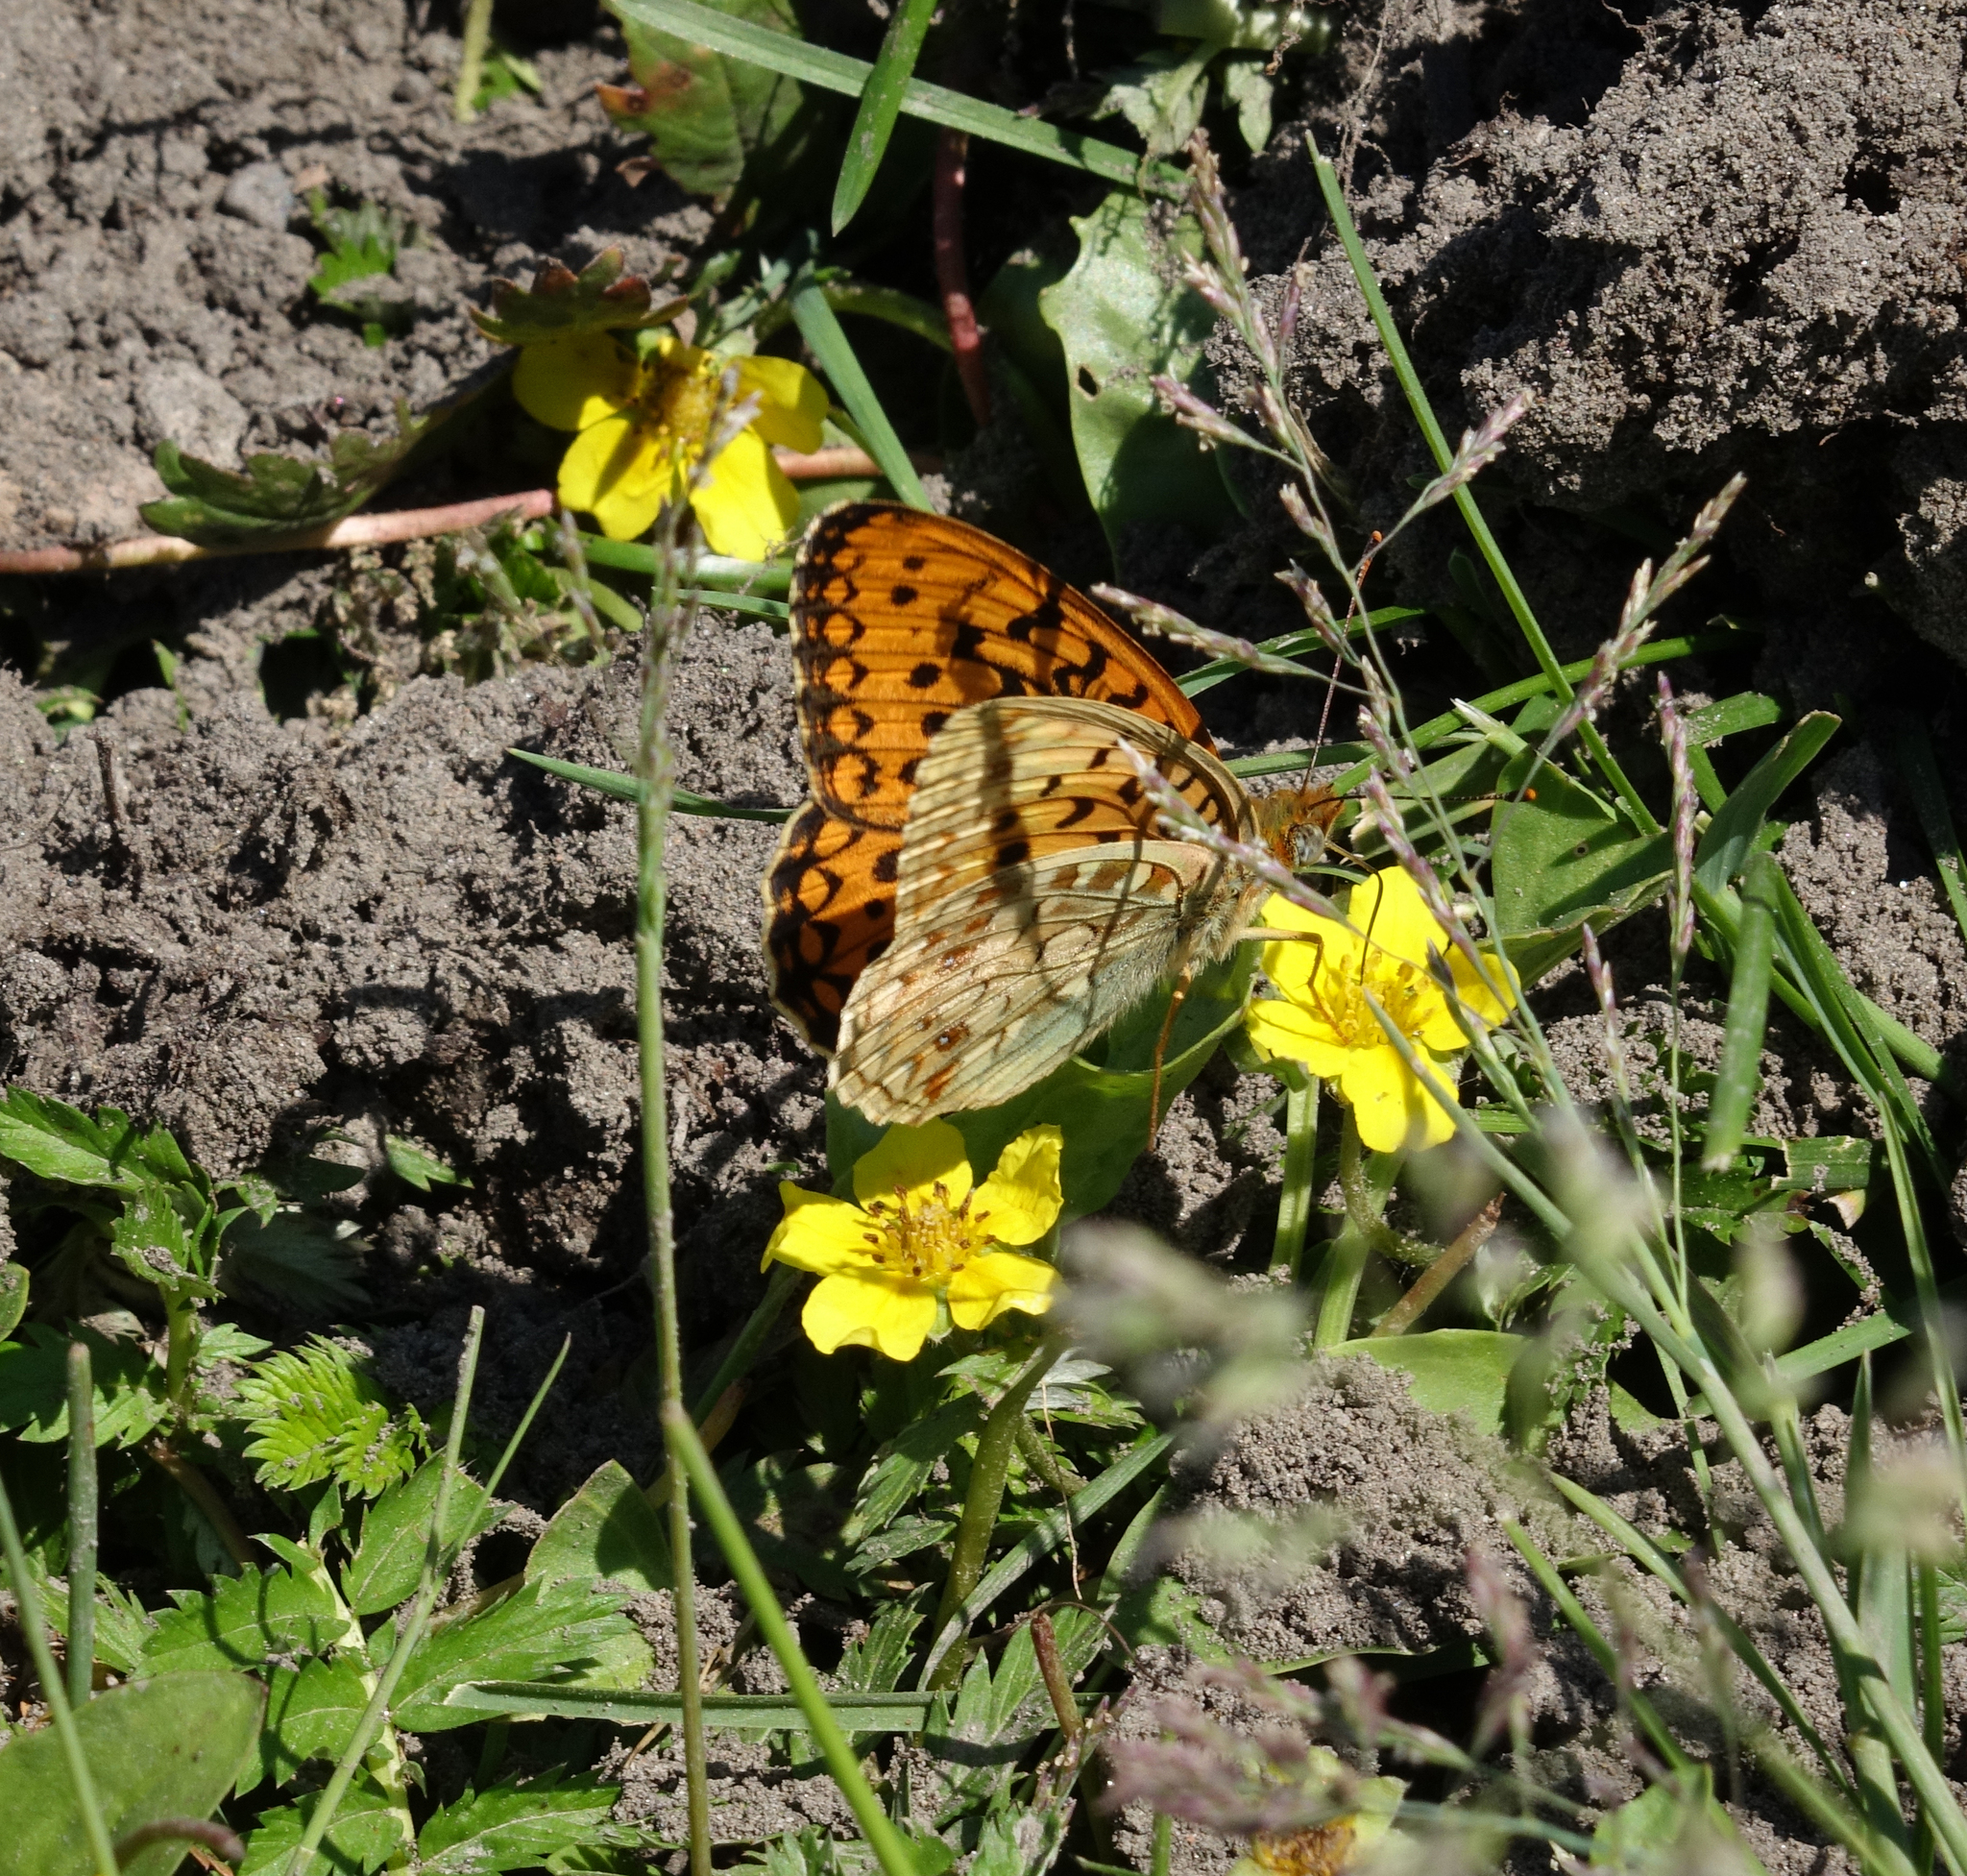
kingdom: Plantae
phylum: Tracheophyta
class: Magnoliopsida
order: Rosales
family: Rosaceae
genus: Argentina
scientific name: Argentina anserina
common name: Common silverweed
